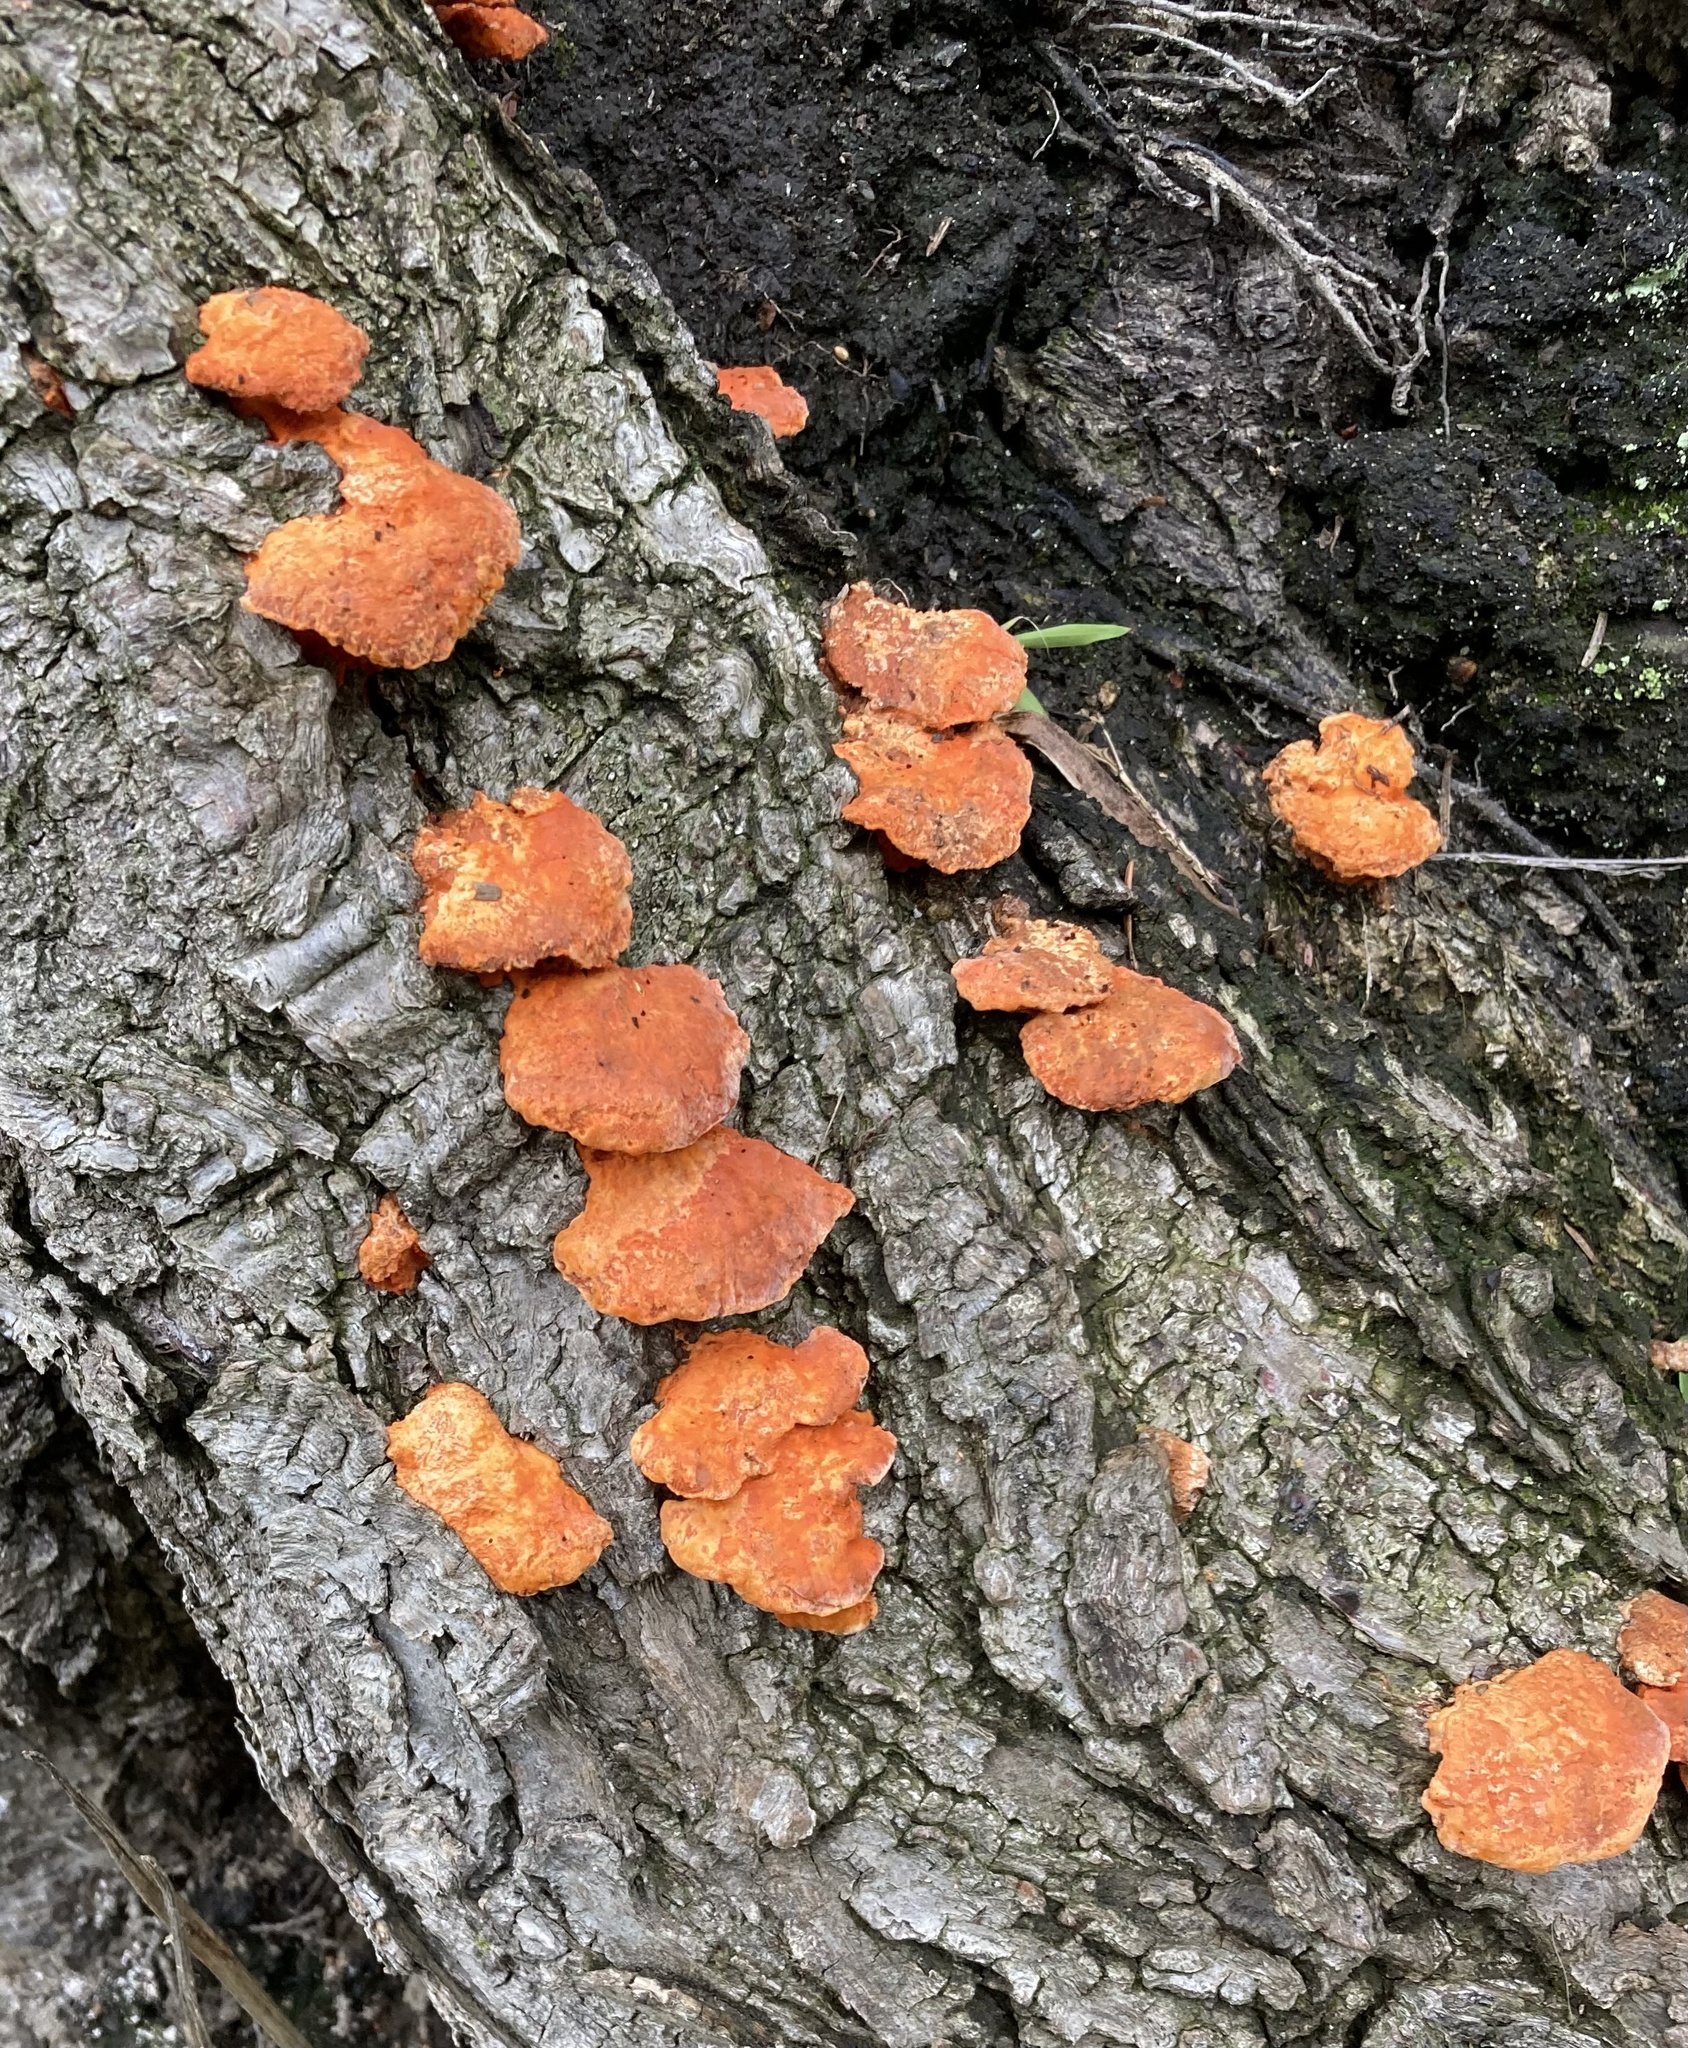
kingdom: Fungi
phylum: Basidiomycota
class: Agaricomycetes
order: Polyporales
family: Polyporaceae
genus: Trametes
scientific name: Trametes coccinea
